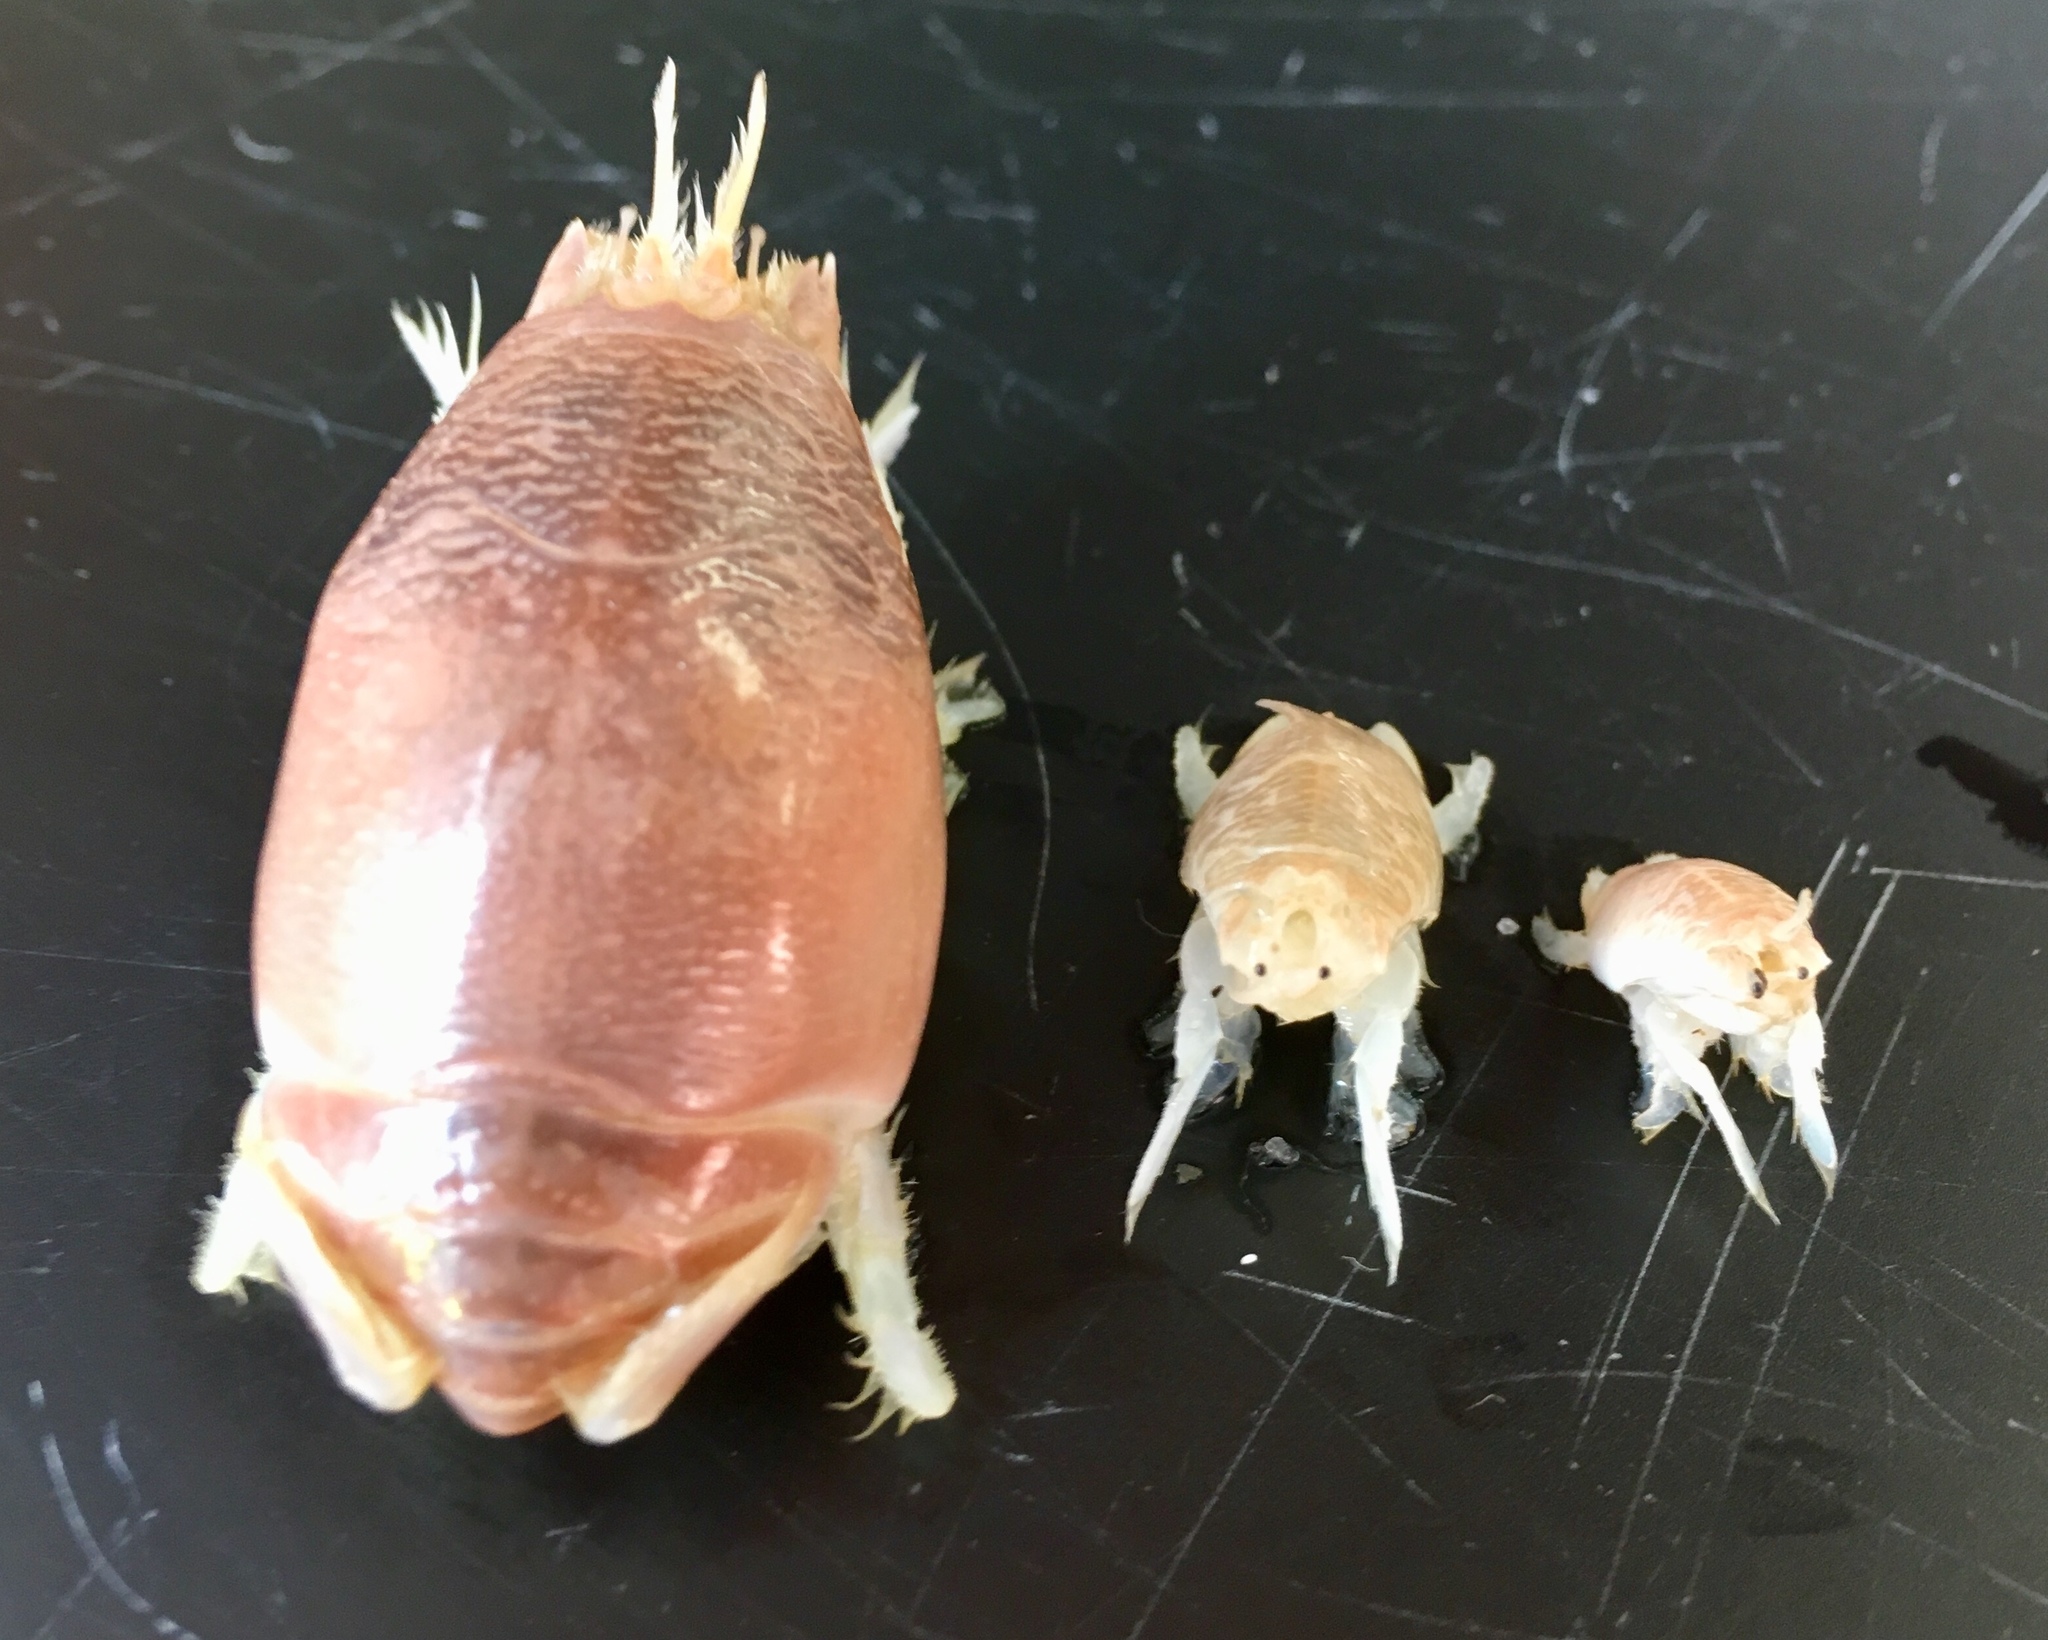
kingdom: Animalia
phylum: Arthropoda
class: Malacostraca
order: Decapoda
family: Hippidae
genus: Emerita
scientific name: Emerita talpoida
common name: Atlantic sand crab
